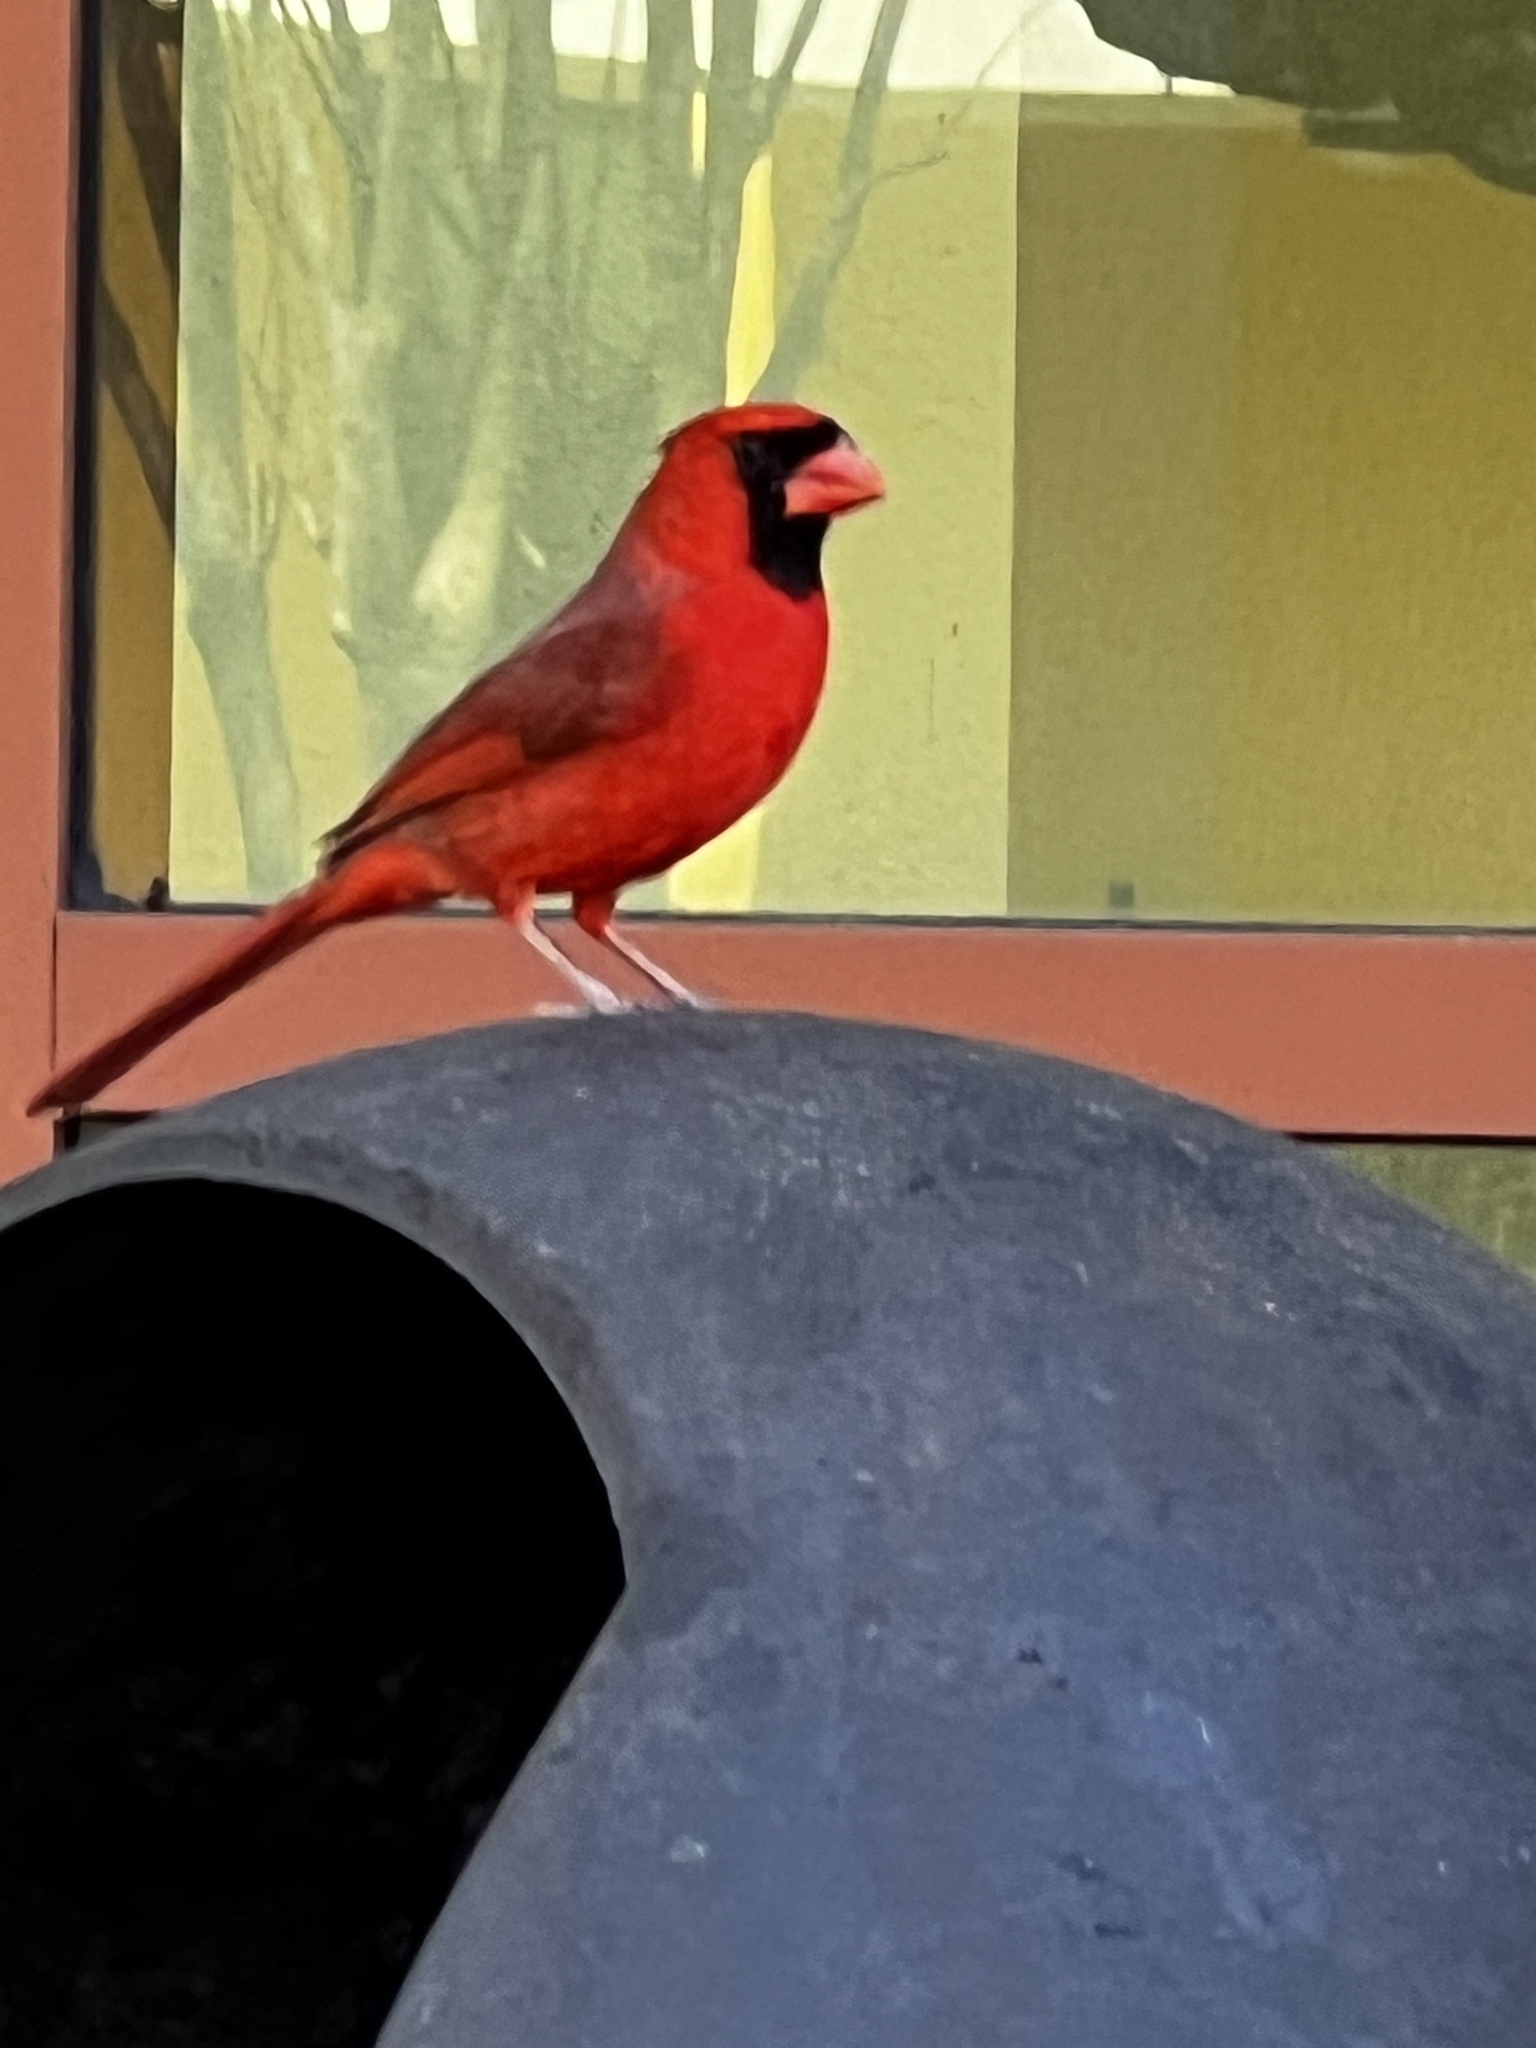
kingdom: Animalia
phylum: Chordata
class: Aves
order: Passeriformes
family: Cardinalidae
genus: Cardinalis
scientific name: Cardinalis cardinalis
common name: Northern cardinal
